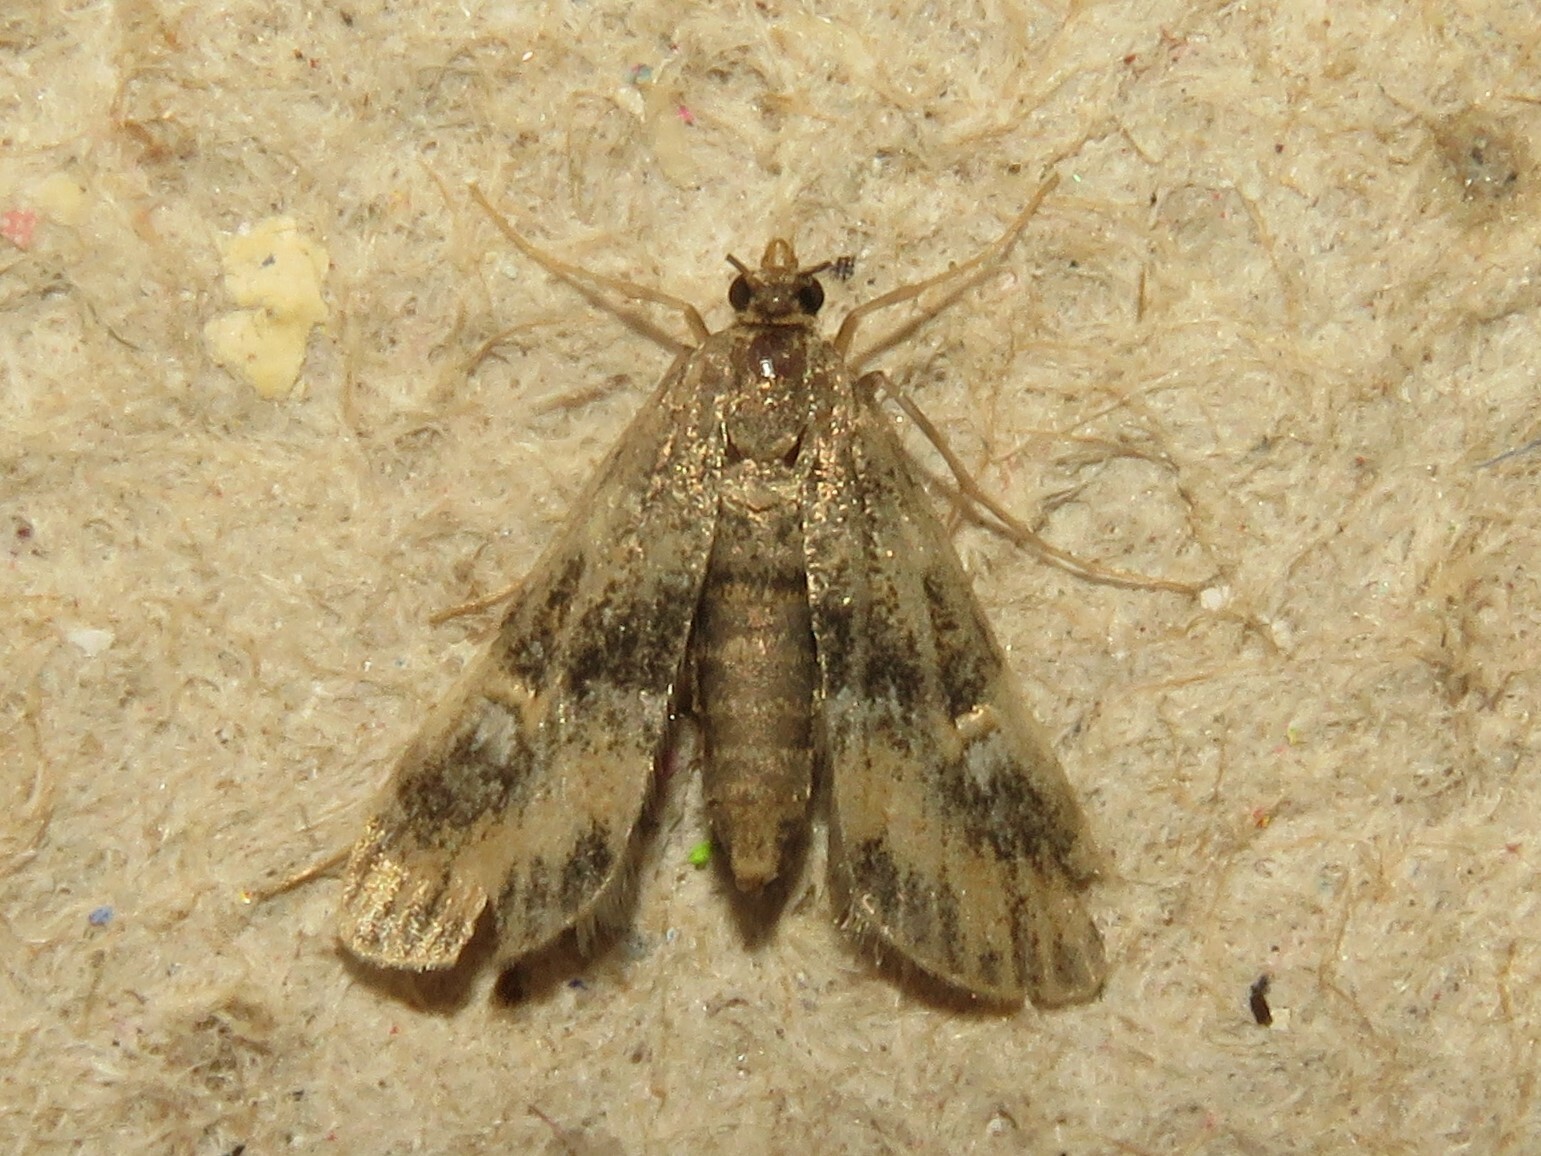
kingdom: Animalia
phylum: Arthropoda
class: Insecta
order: Lepidoptera
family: Crambidae
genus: Elophila
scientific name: Elophila obliteralis
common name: Waterlily leafcutter moth
